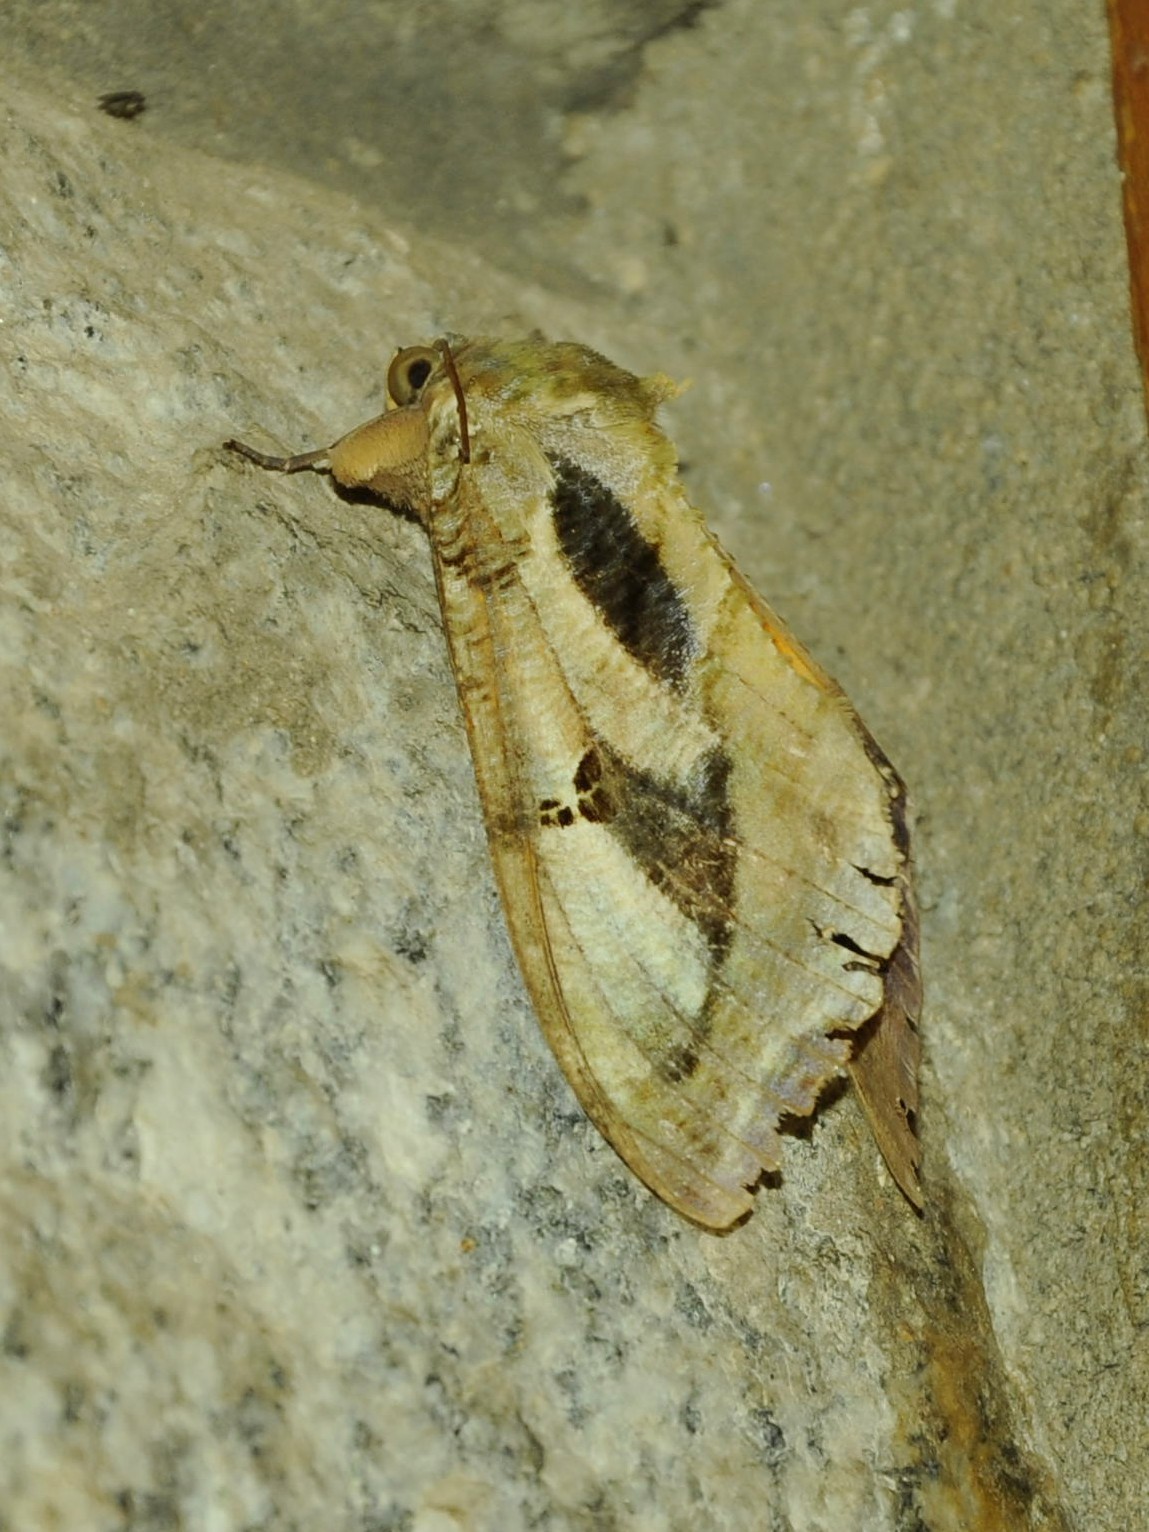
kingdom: Animalia
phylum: Arthropoda
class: Insecta
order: Lepidoptera
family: Erebidae
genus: Eudocima
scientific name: Eudocima materna
